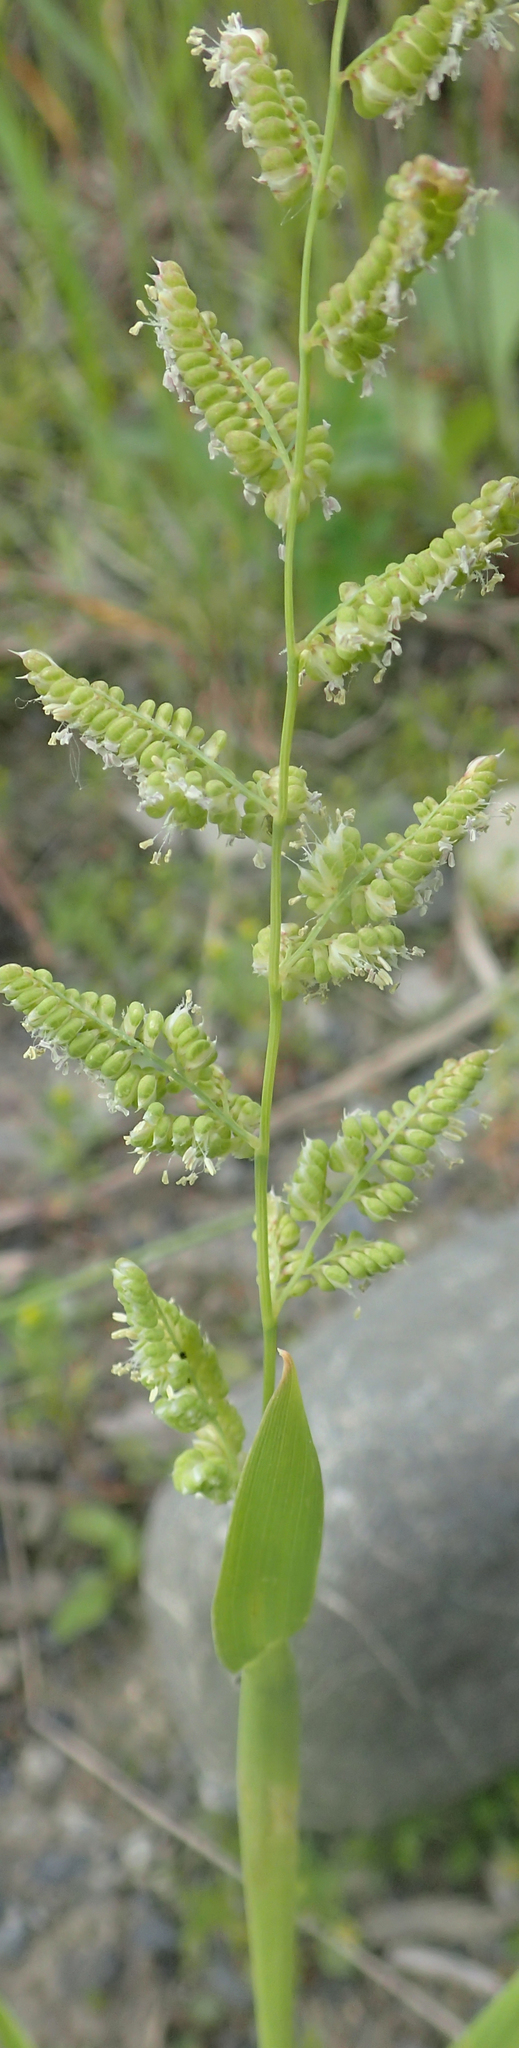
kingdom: Plantae
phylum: Tracheophyta
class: Liliopsida
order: Poales
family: Poaceae
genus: Beckmannia
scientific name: Beckmannia syzigachne
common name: American slough-grass
